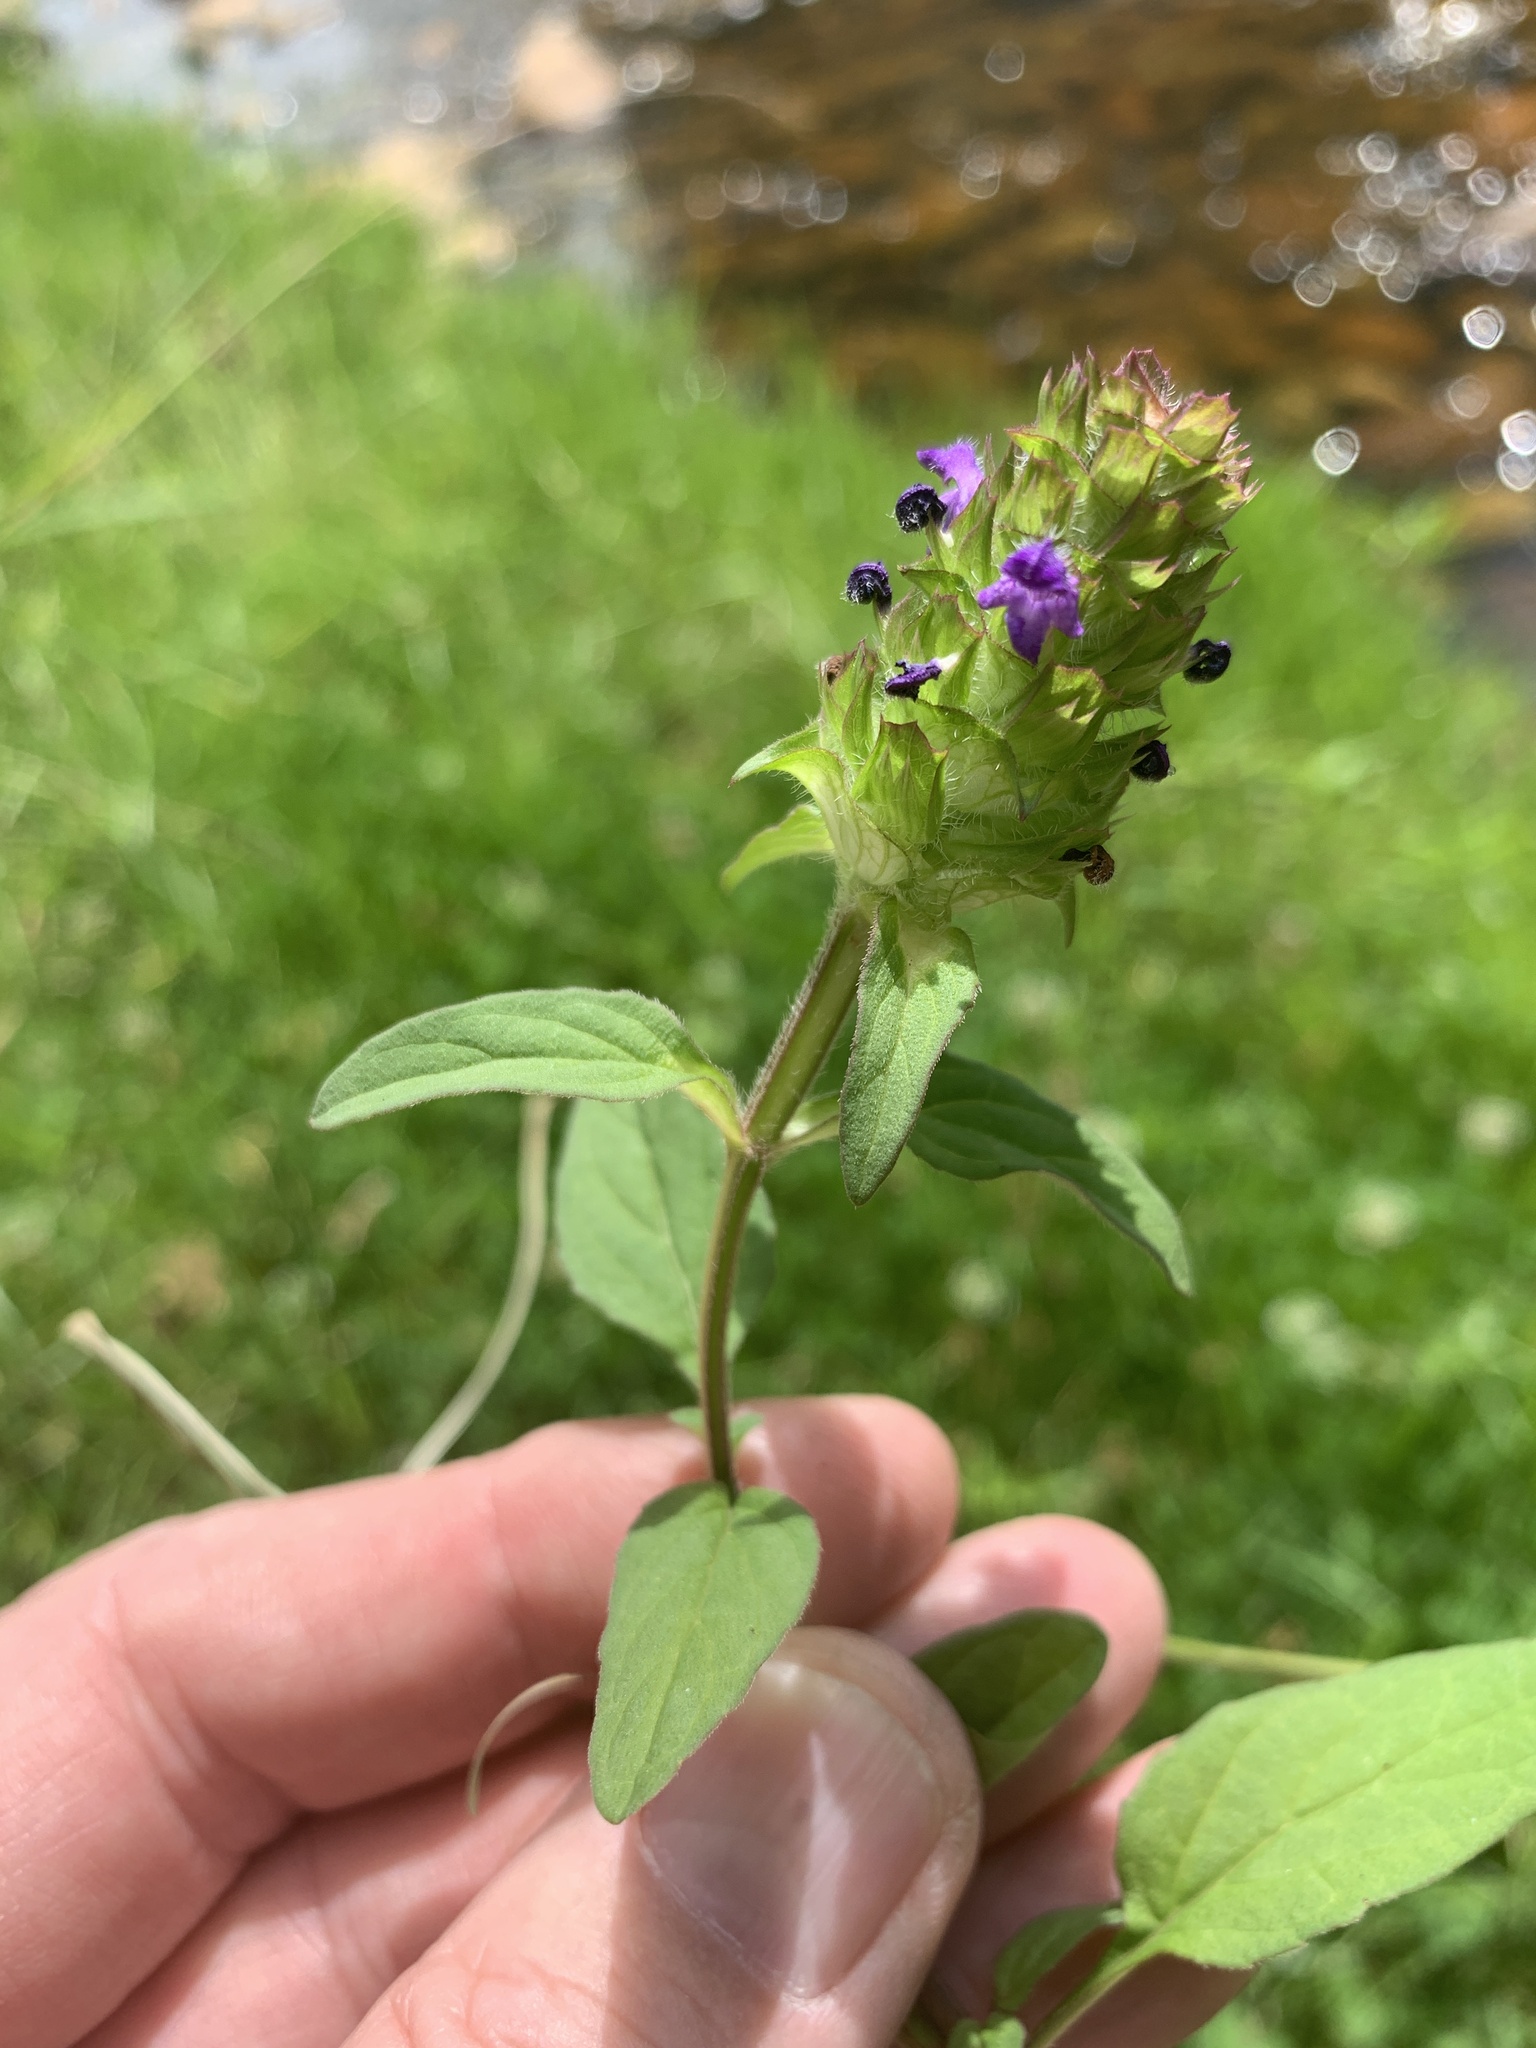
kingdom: Plantae
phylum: Tracheophyta
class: Magnoliopsida
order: Lamiales
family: Lamiaceae
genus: Prunella
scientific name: Prunella vulgaris
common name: Heal-all
